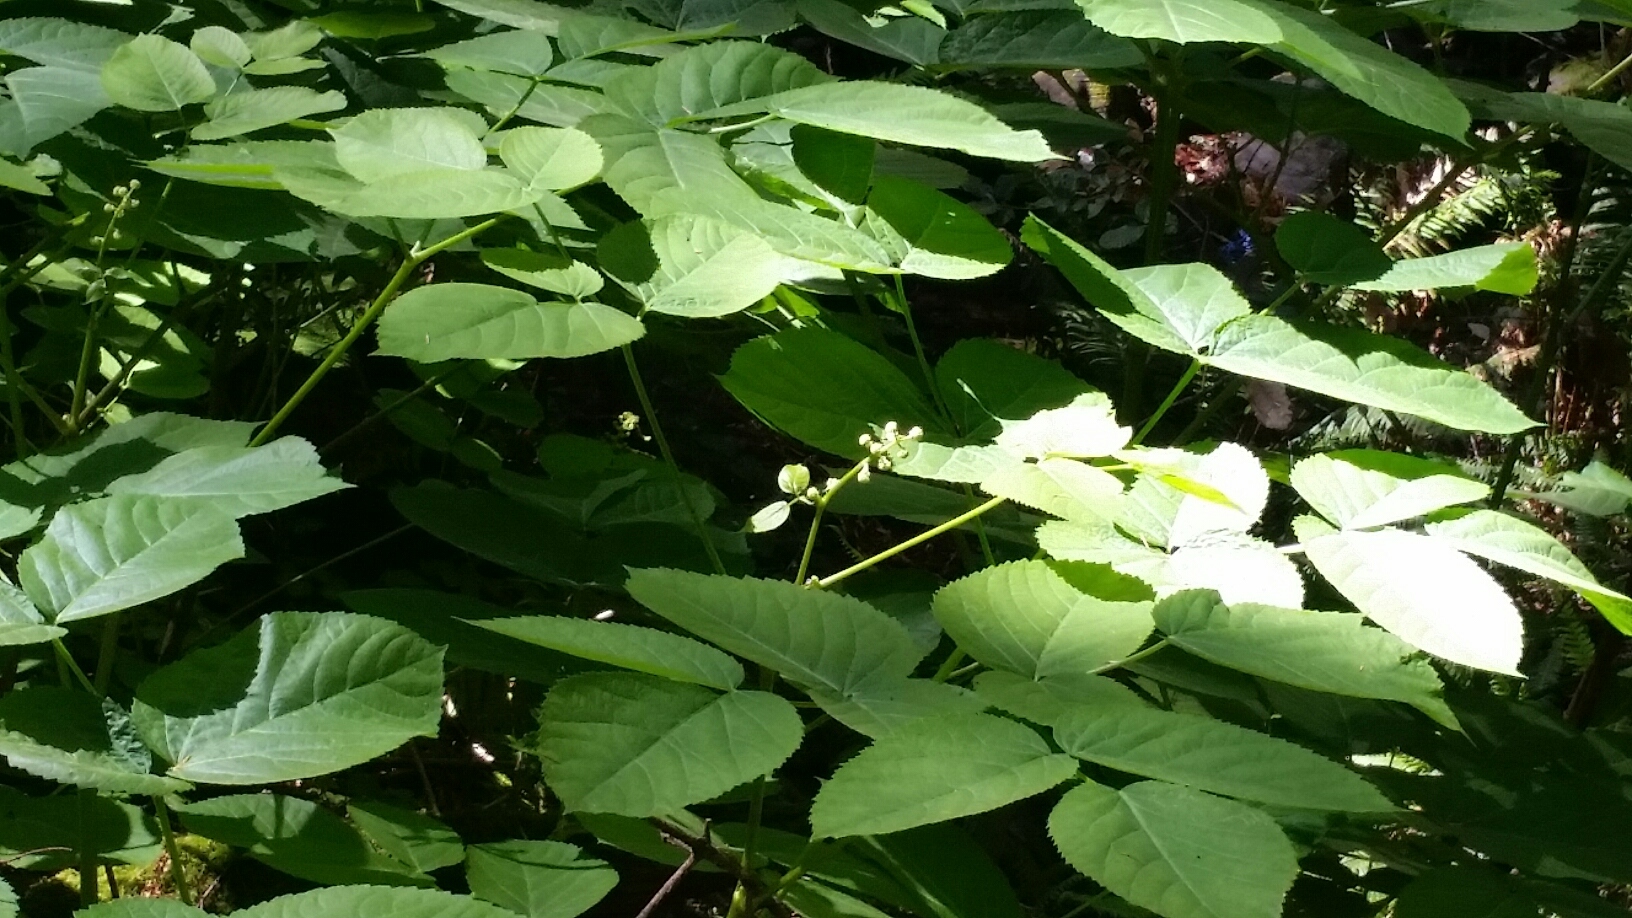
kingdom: Plantae
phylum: Tracheophyta
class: Magnoliopsida
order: Apiales
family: Araliaceae
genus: Aralia
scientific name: Aralia californica
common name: California-ginseng
